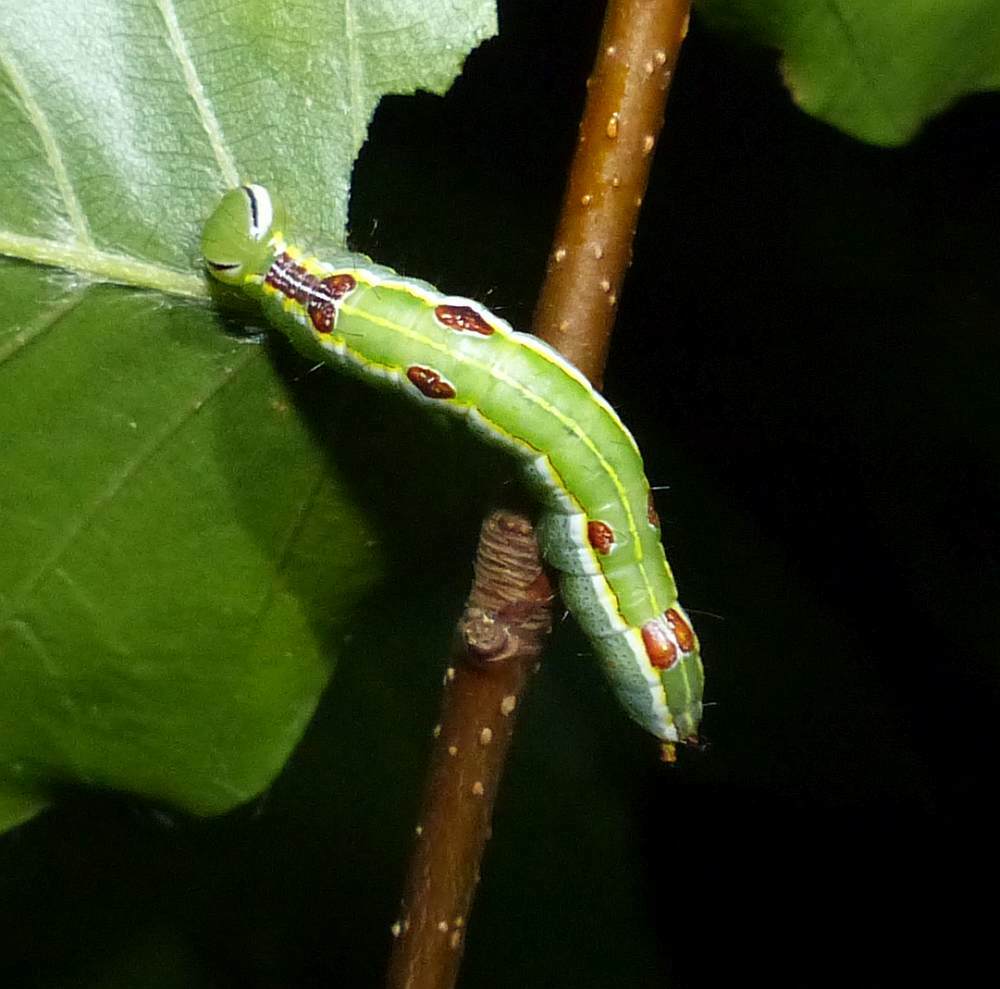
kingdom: Animalia
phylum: Arthropoda
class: Insecta
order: Lepidoptera
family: Notodontidae
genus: Lochmaeus
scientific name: Lochmaeus manteo
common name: Variable oakleaf caterpillar moth
